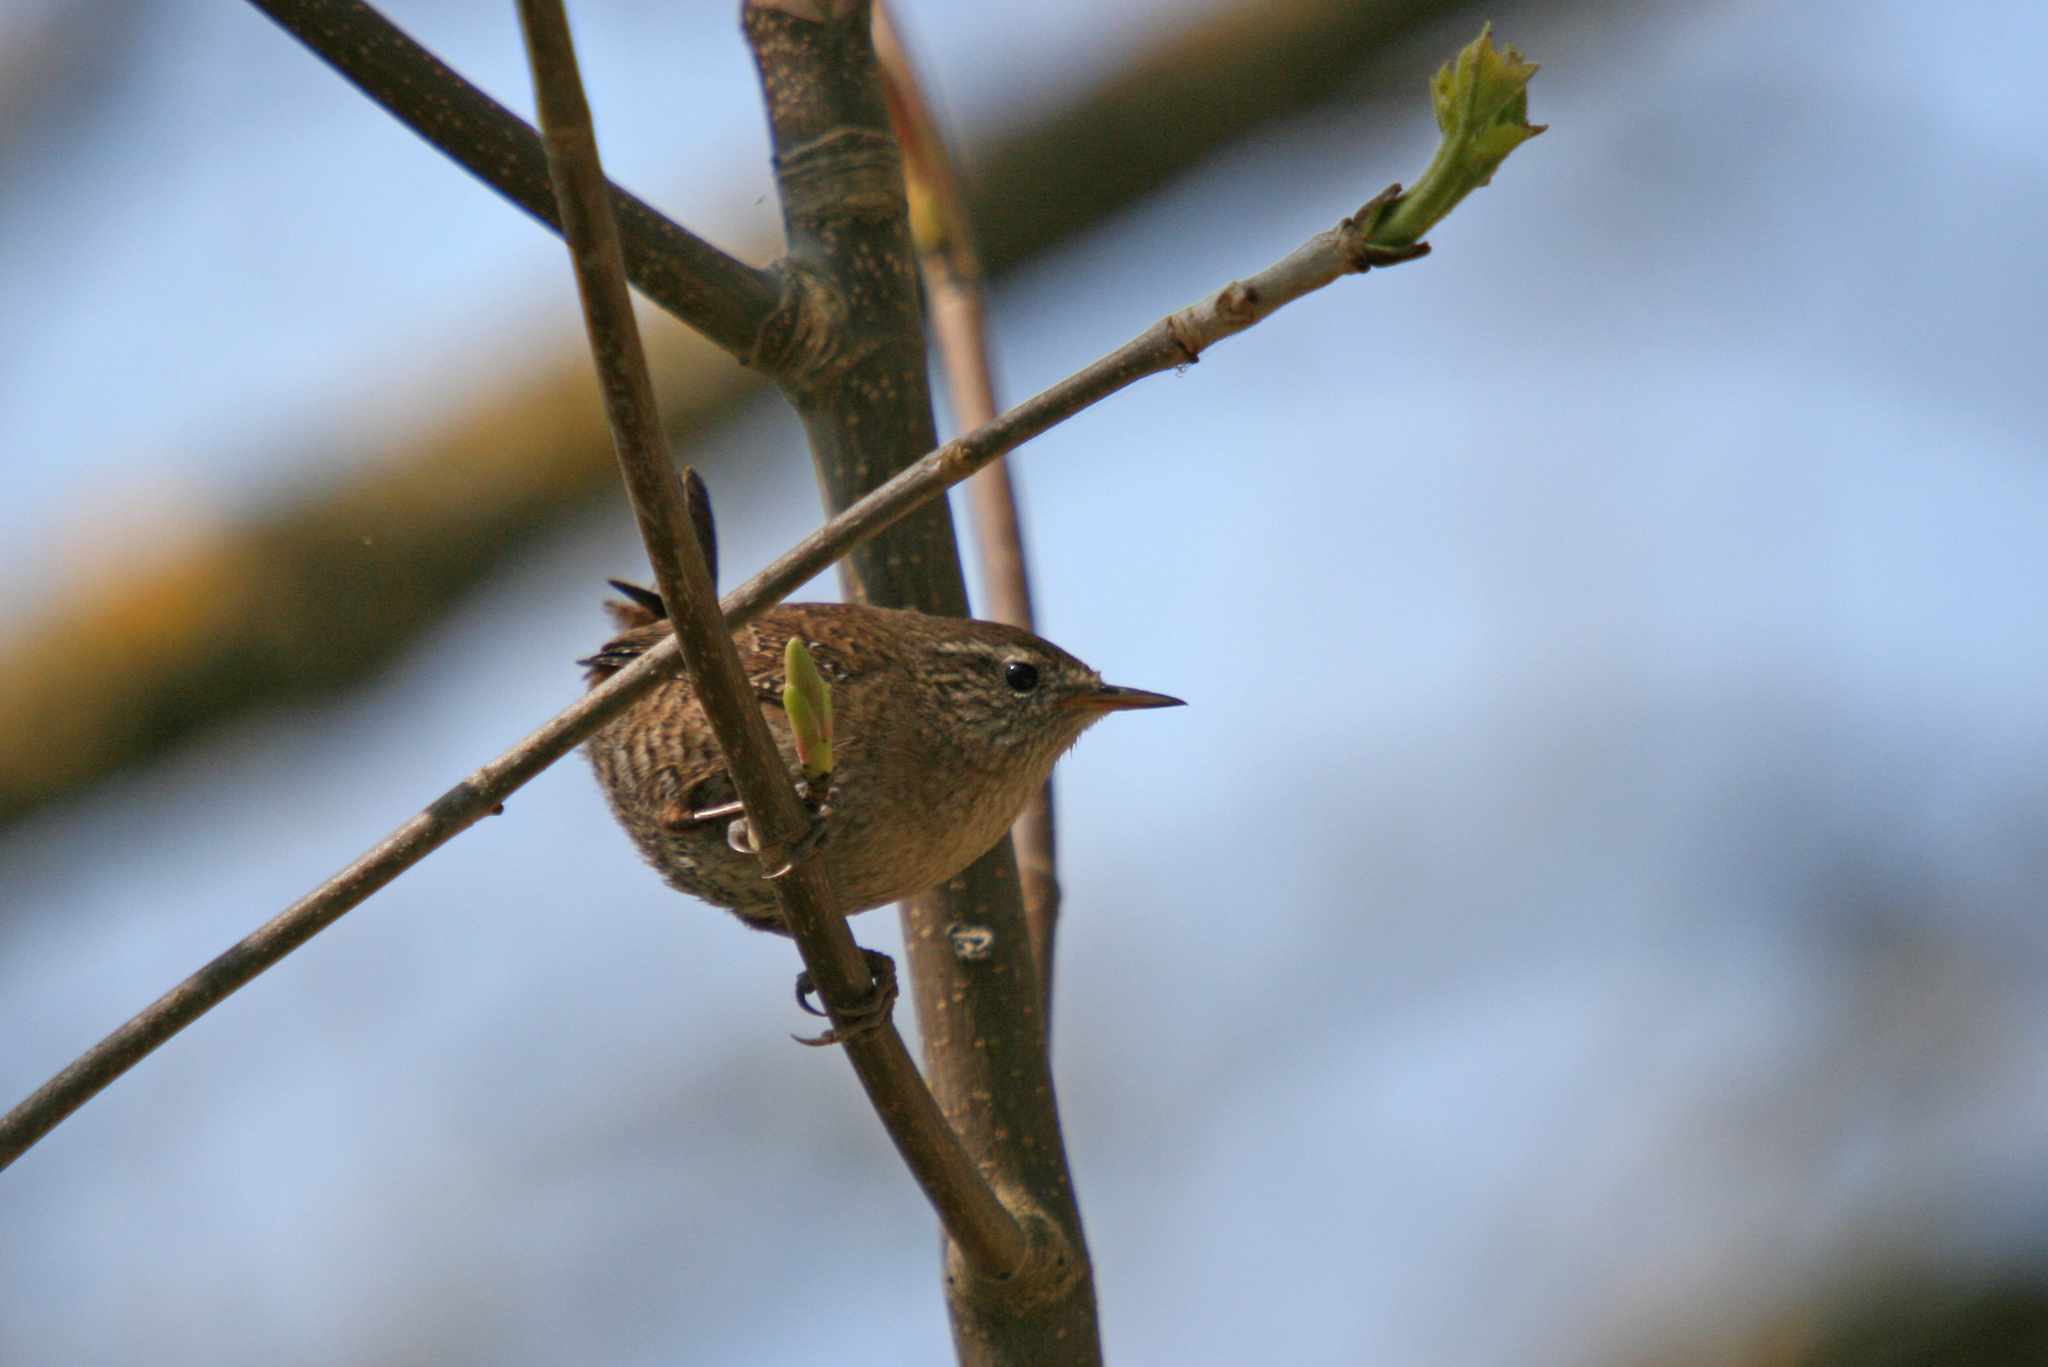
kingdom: Animalia
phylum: Chordata
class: Aves
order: Passeriformes
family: Troglodytidae
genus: Troglodytes
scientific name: Troglodytes troglodytes
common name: Eurasian wren
